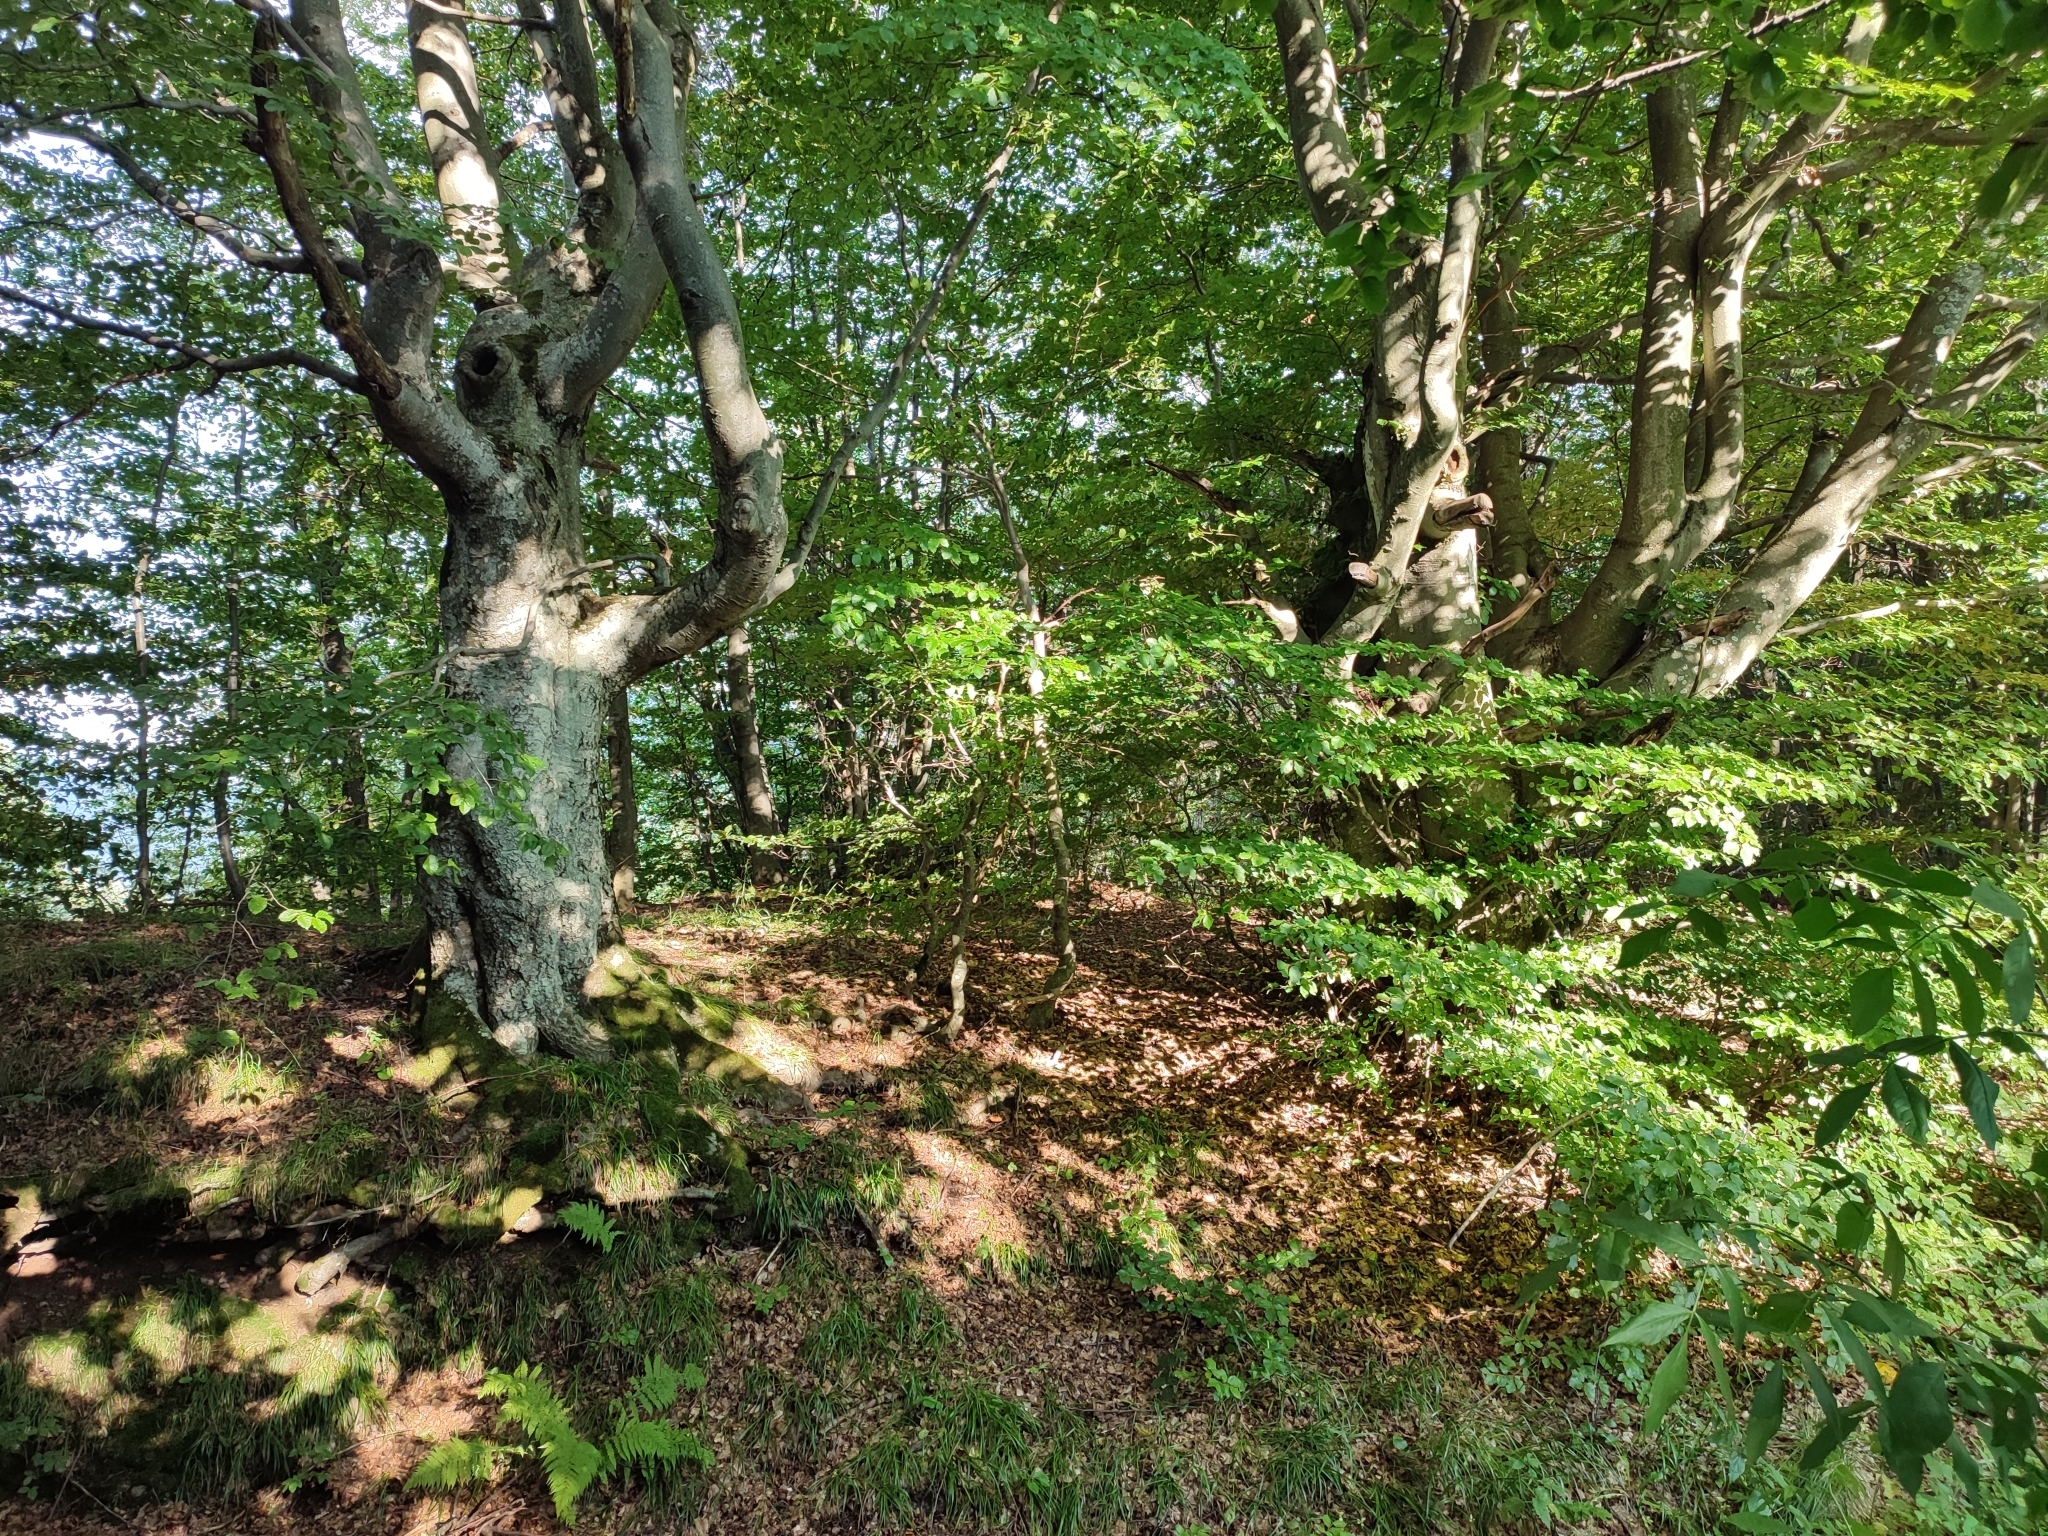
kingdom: Plantae
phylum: Tracheophyta
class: Magnoliopsida
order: Fagales
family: Fagaceae
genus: Fagus
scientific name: Fagus sylvatica
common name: Beech
